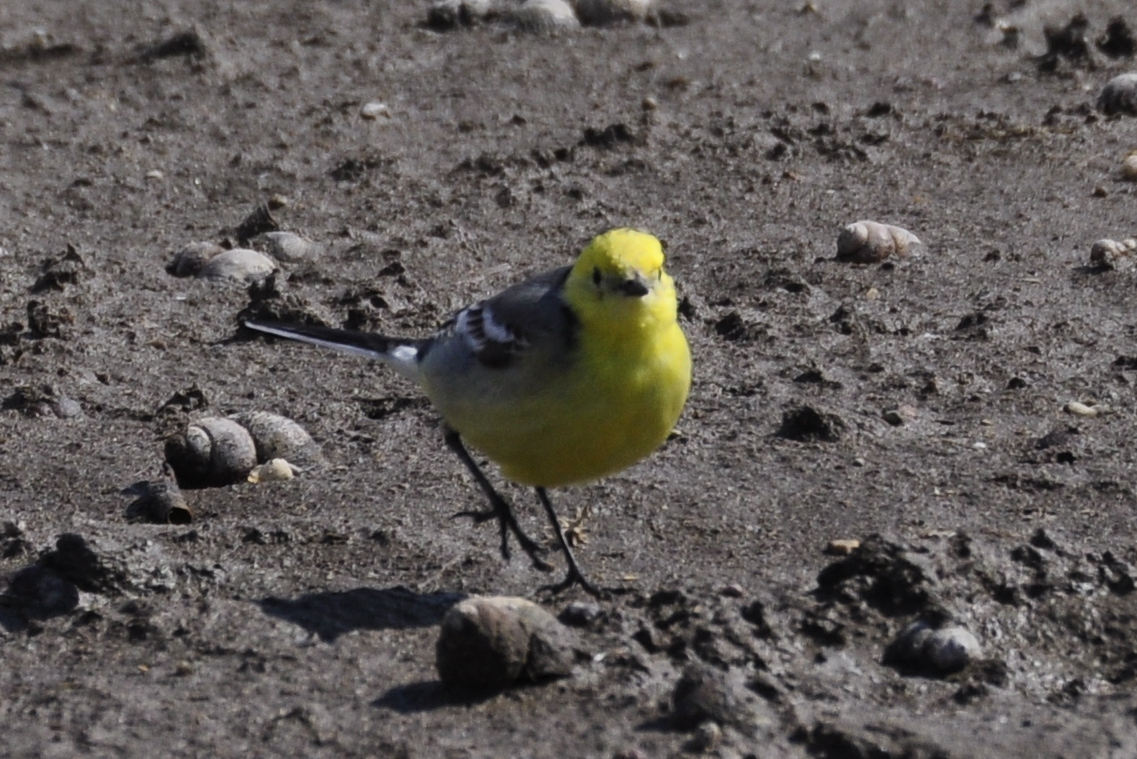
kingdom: Animalia
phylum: Chordata
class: Aves
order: Passeriformes
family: Motacillidae
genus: Motacilla
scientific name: Motacilla citreola
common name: Citrine wagtail
